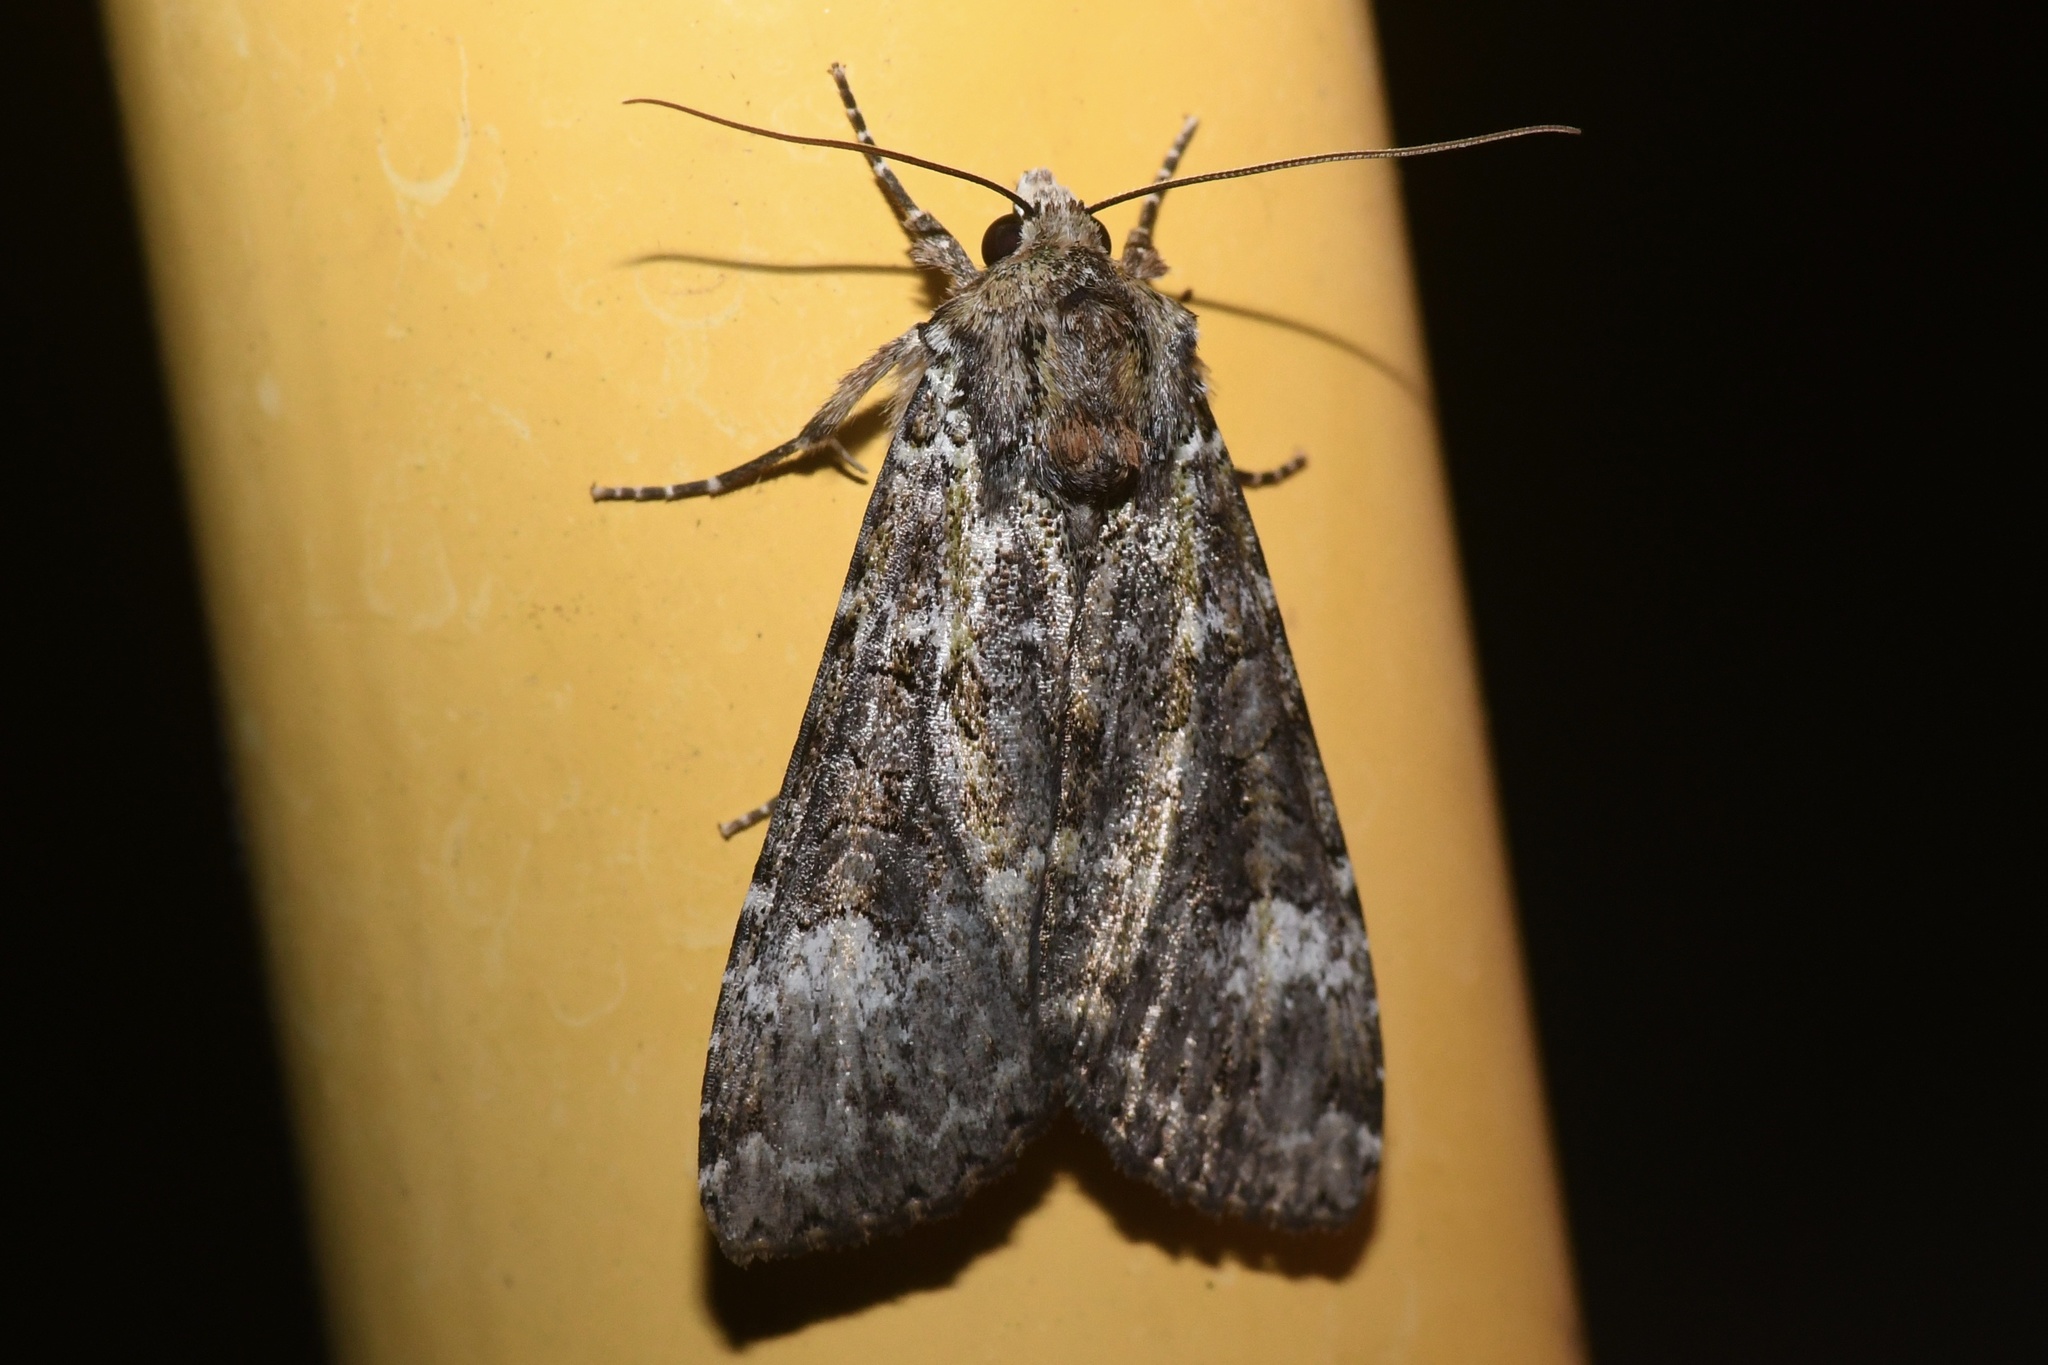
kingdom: Animalia
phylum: Arthropoda
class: Insecta
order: Lepidoptera
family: Noctuidae
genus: Anaplectoides
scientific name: Anaplectoides prasina
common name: Green arches
